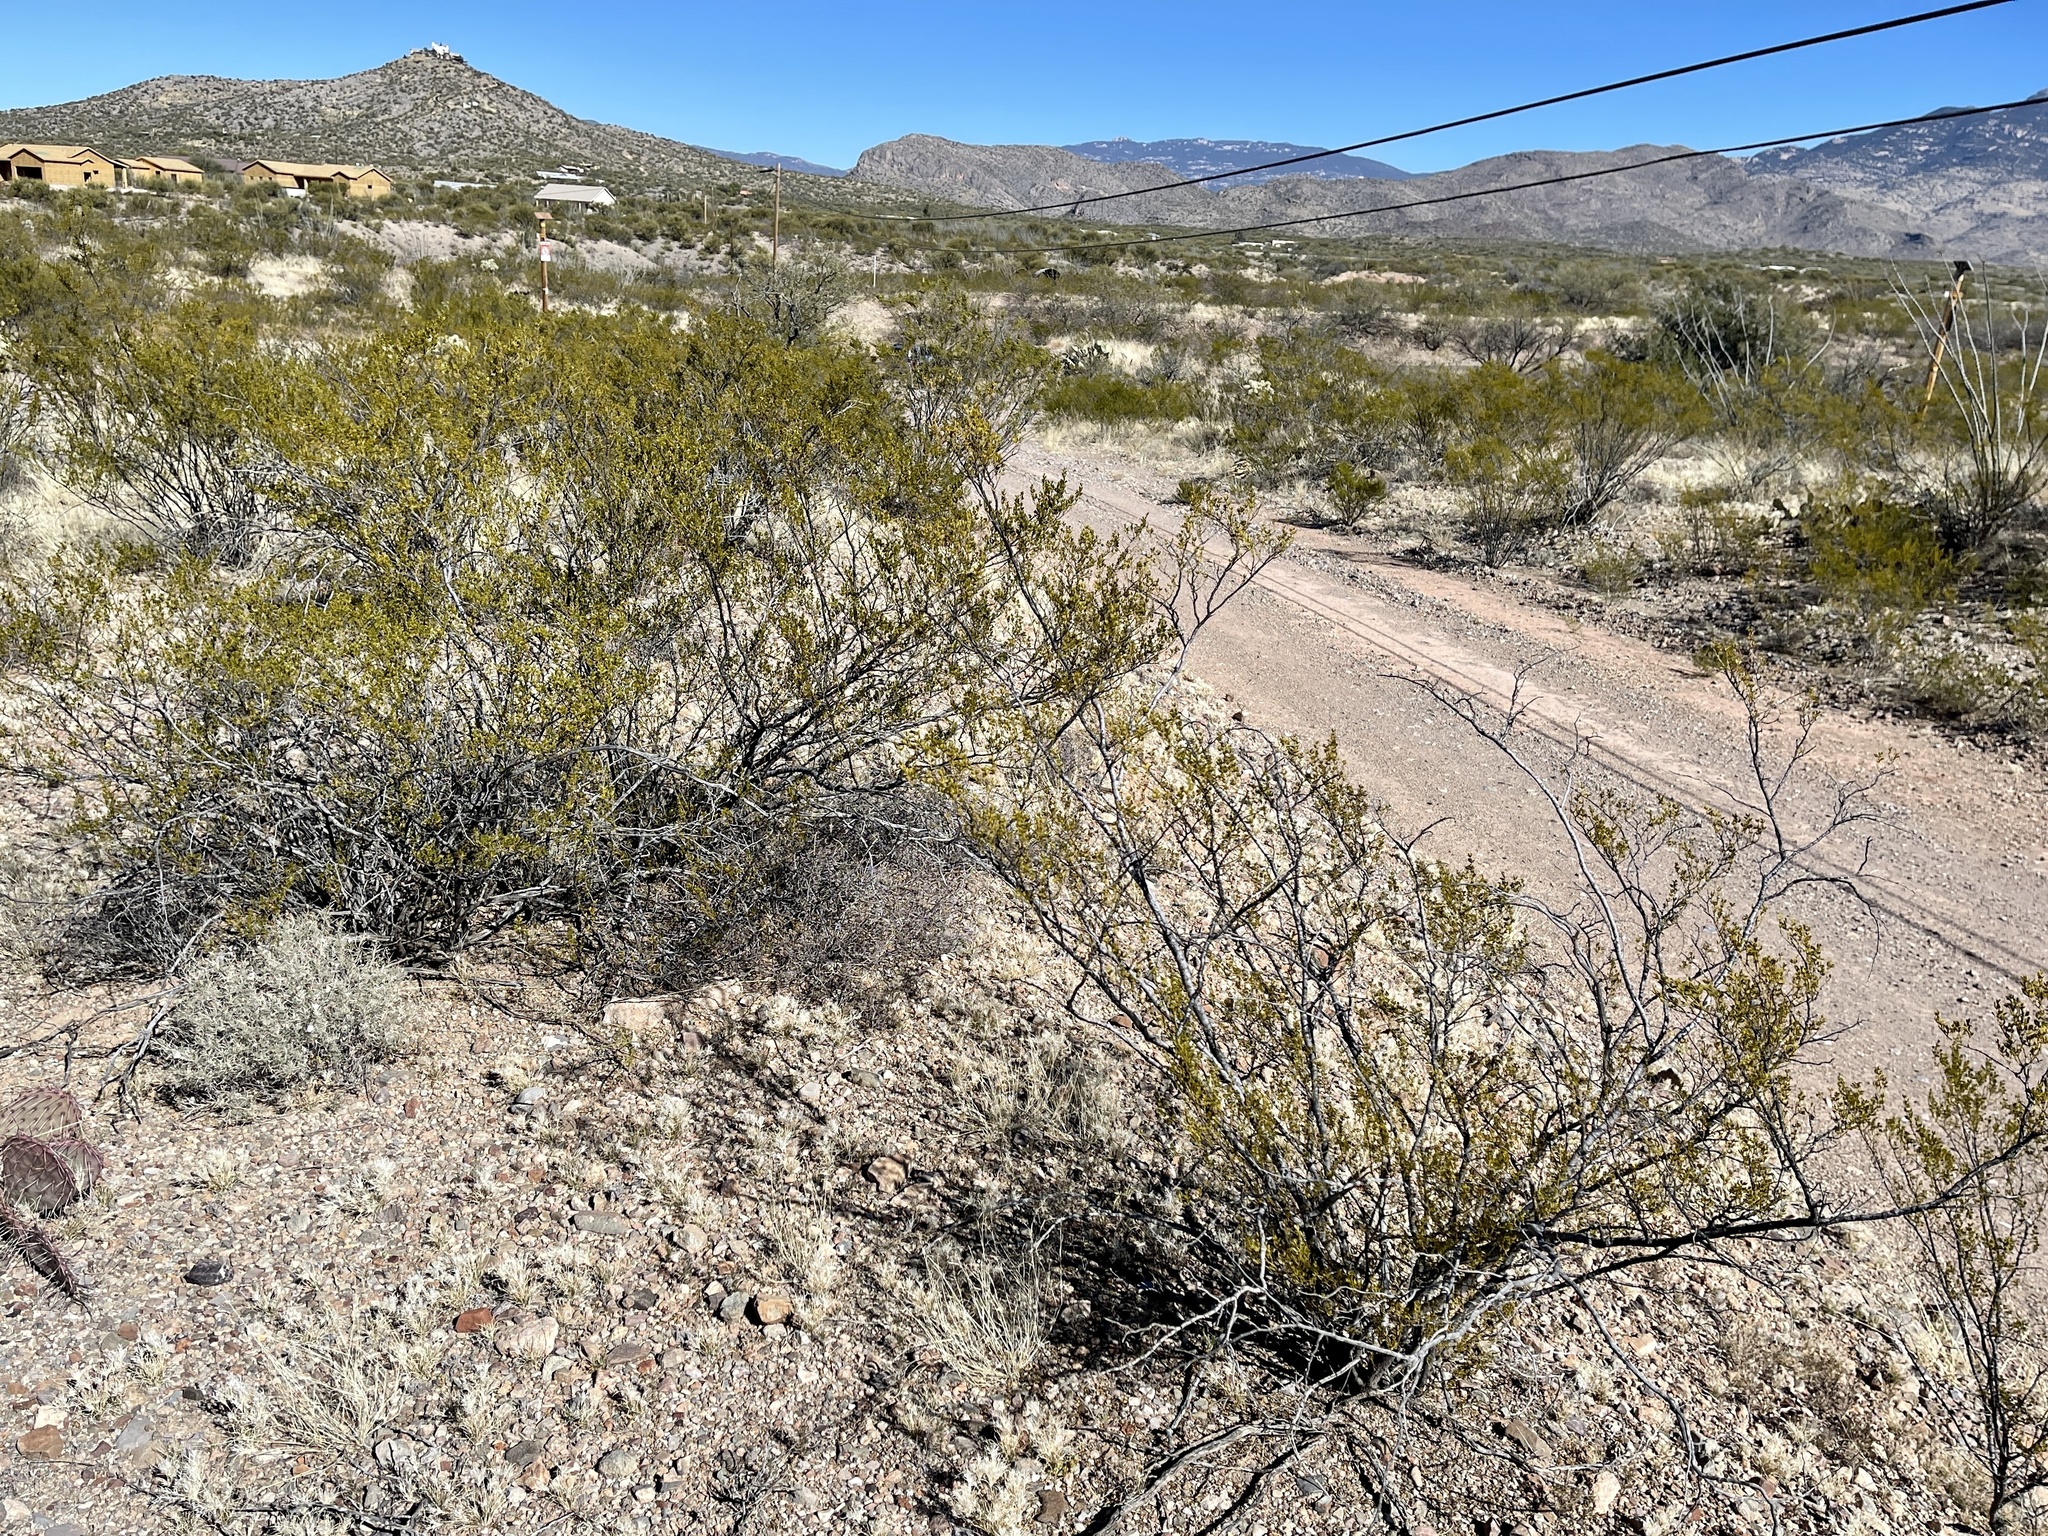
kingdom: Plantae
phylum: Tracheophyta
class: Magnoliopsida
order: Zygophyllales
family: Zygophyllaceae
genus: Larrea
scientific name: Larrea tridentata
